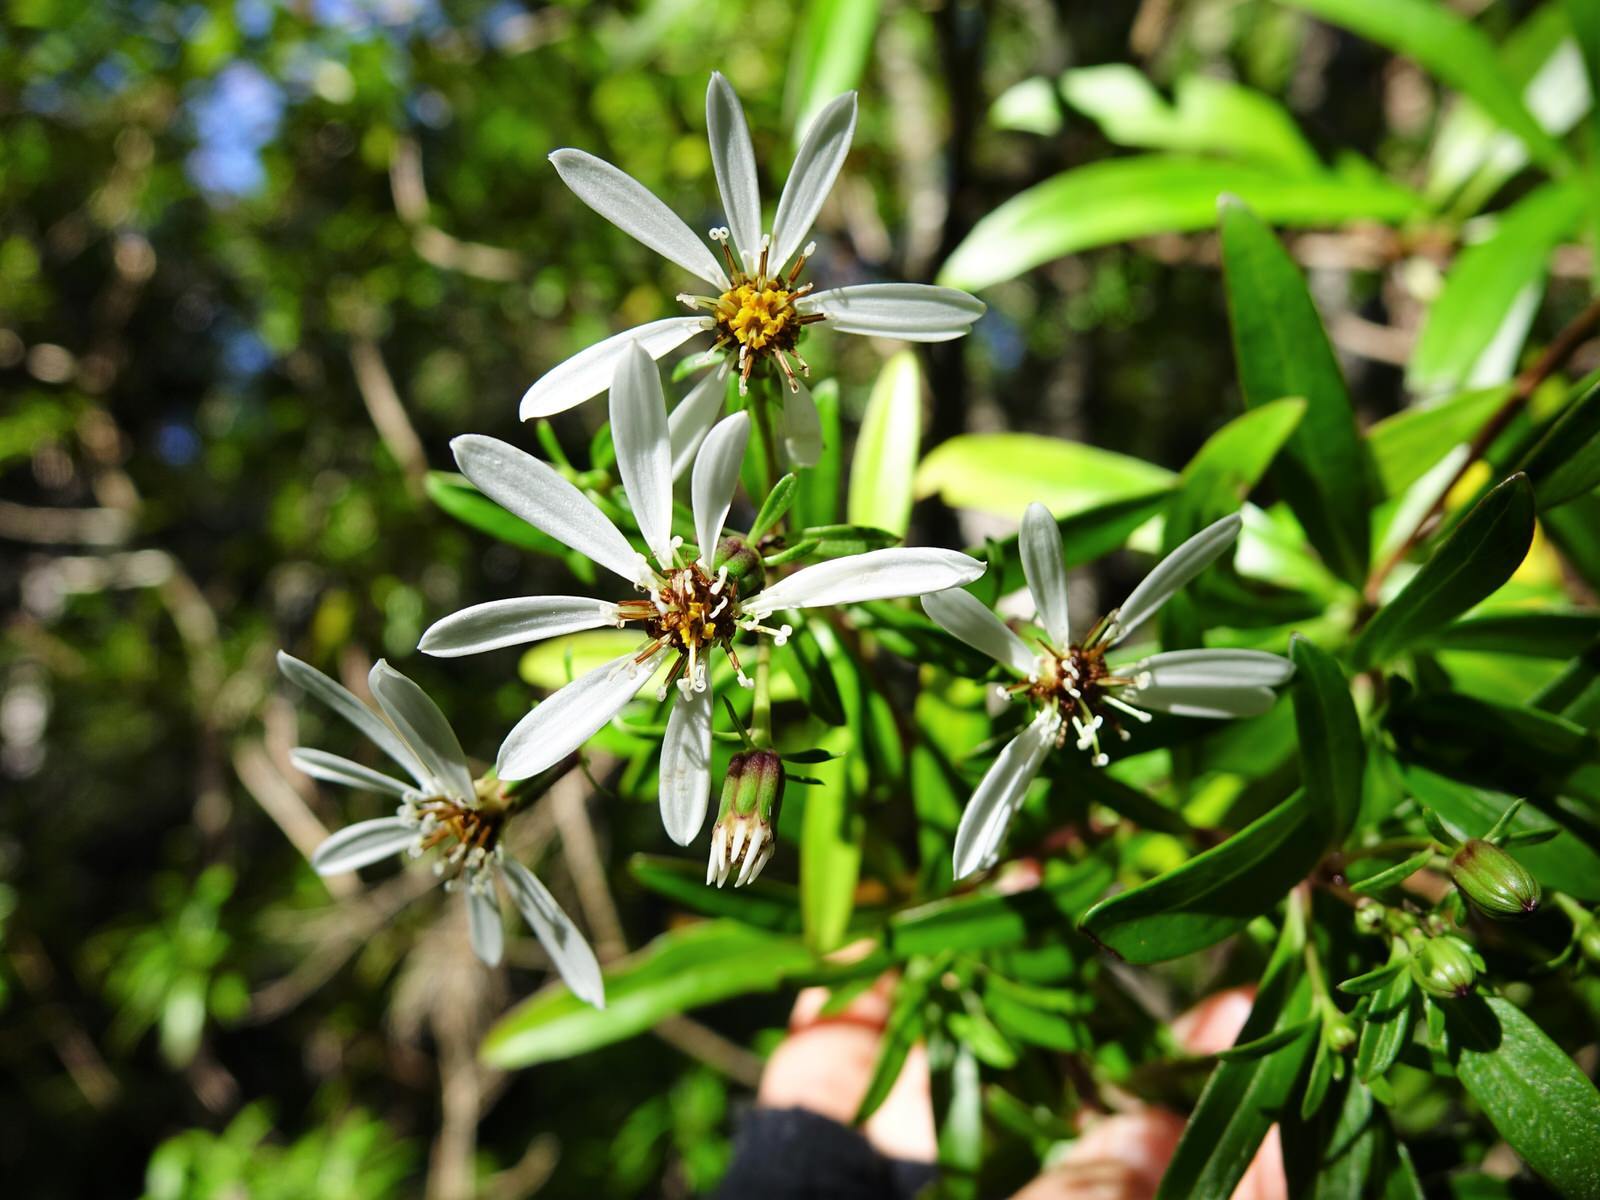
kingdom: Plantae
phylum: Tracheophyta
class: Magnoliopsida
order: Asterales
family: Asteraceae
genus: Brachyglottis
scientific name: Brachyglottis kirkii
